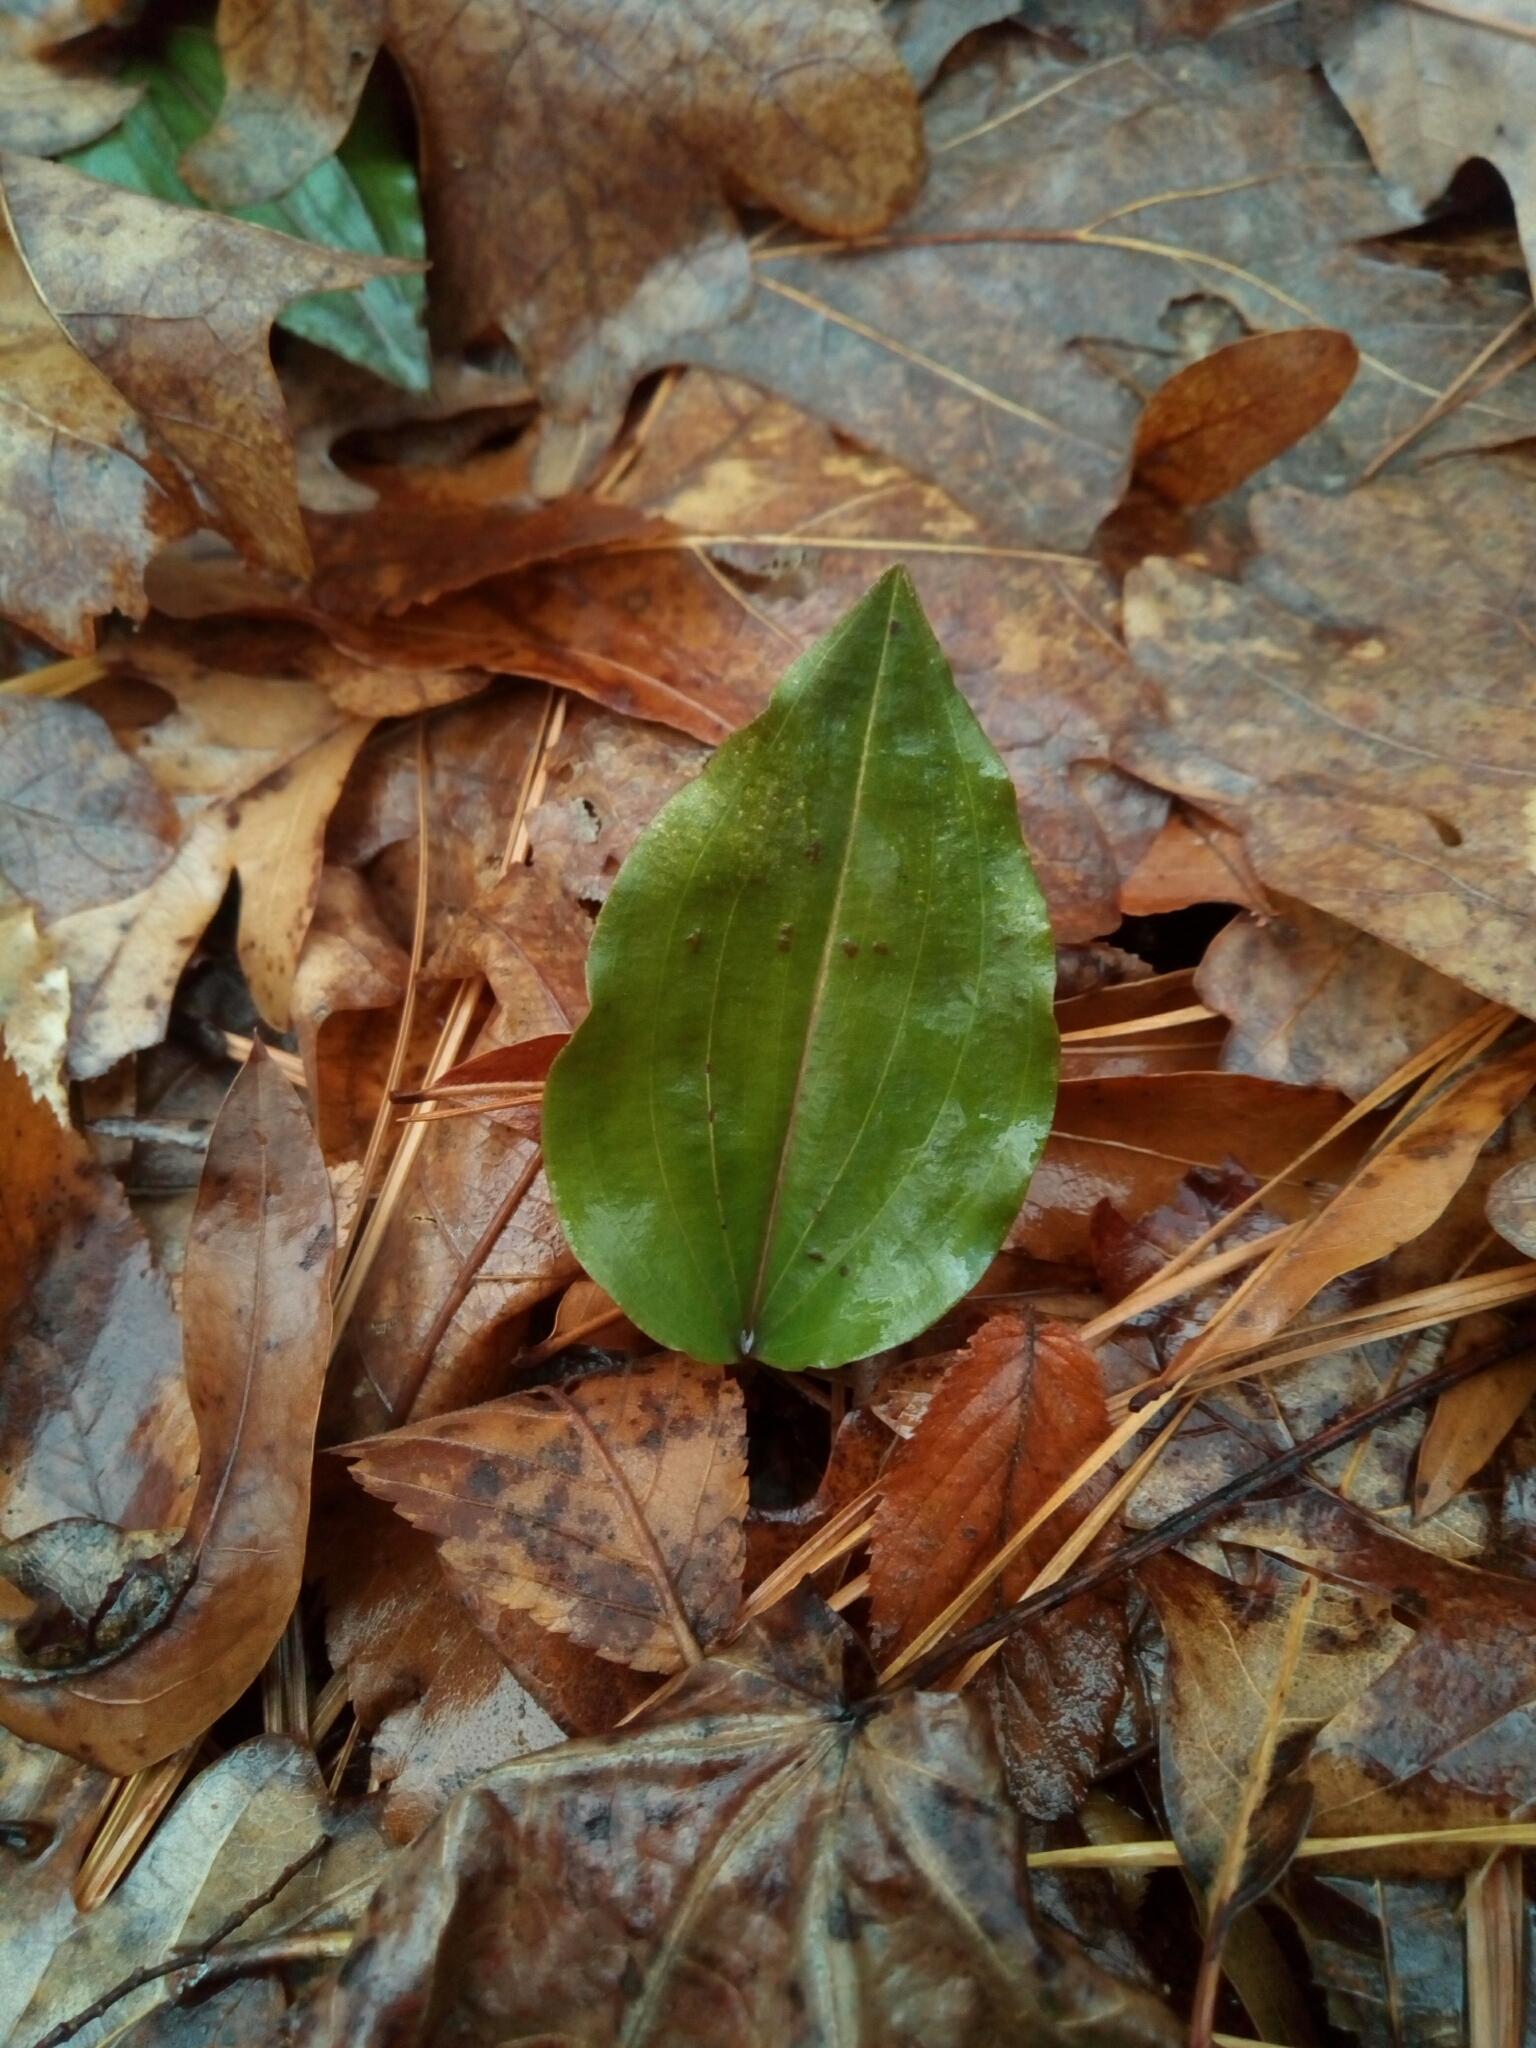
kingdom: Plantae
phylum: Tracheophyta
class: Liliopsida
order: Asparagales
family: Orchidaceae
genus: Tipularia
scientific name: Tipularia discolor
